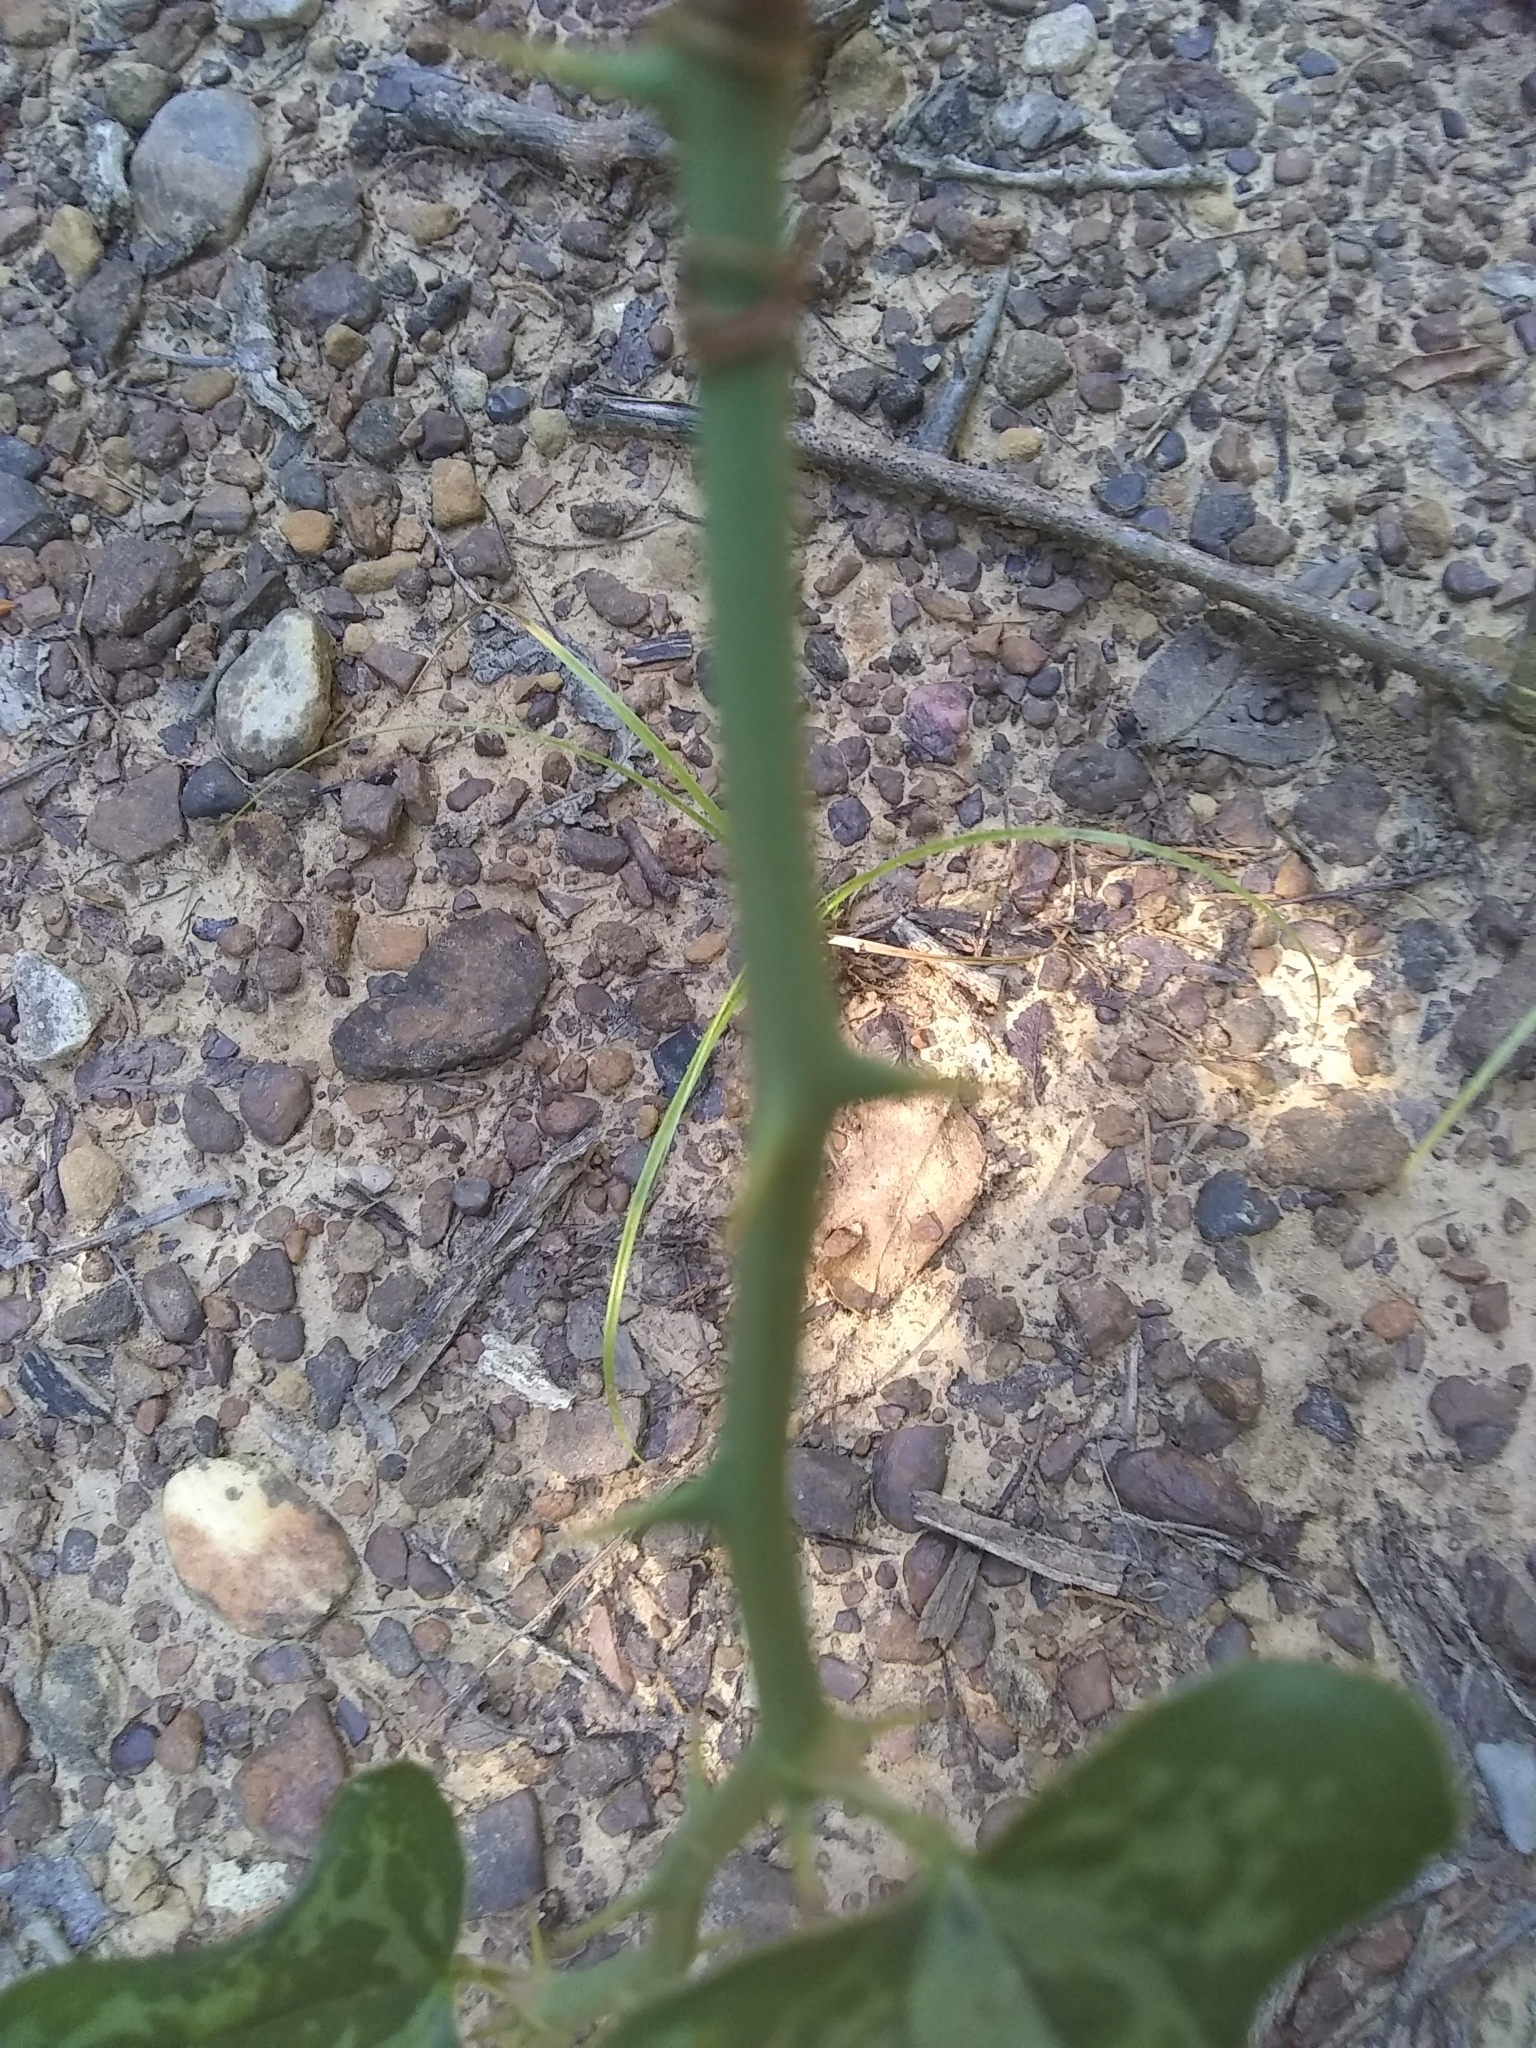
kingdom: Plantae
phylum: Tracheophyta
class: Liliopsida
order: Liliales
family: Smilacaceae
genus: Smilax
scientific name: Smilax bona-nox
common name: Catbrier
